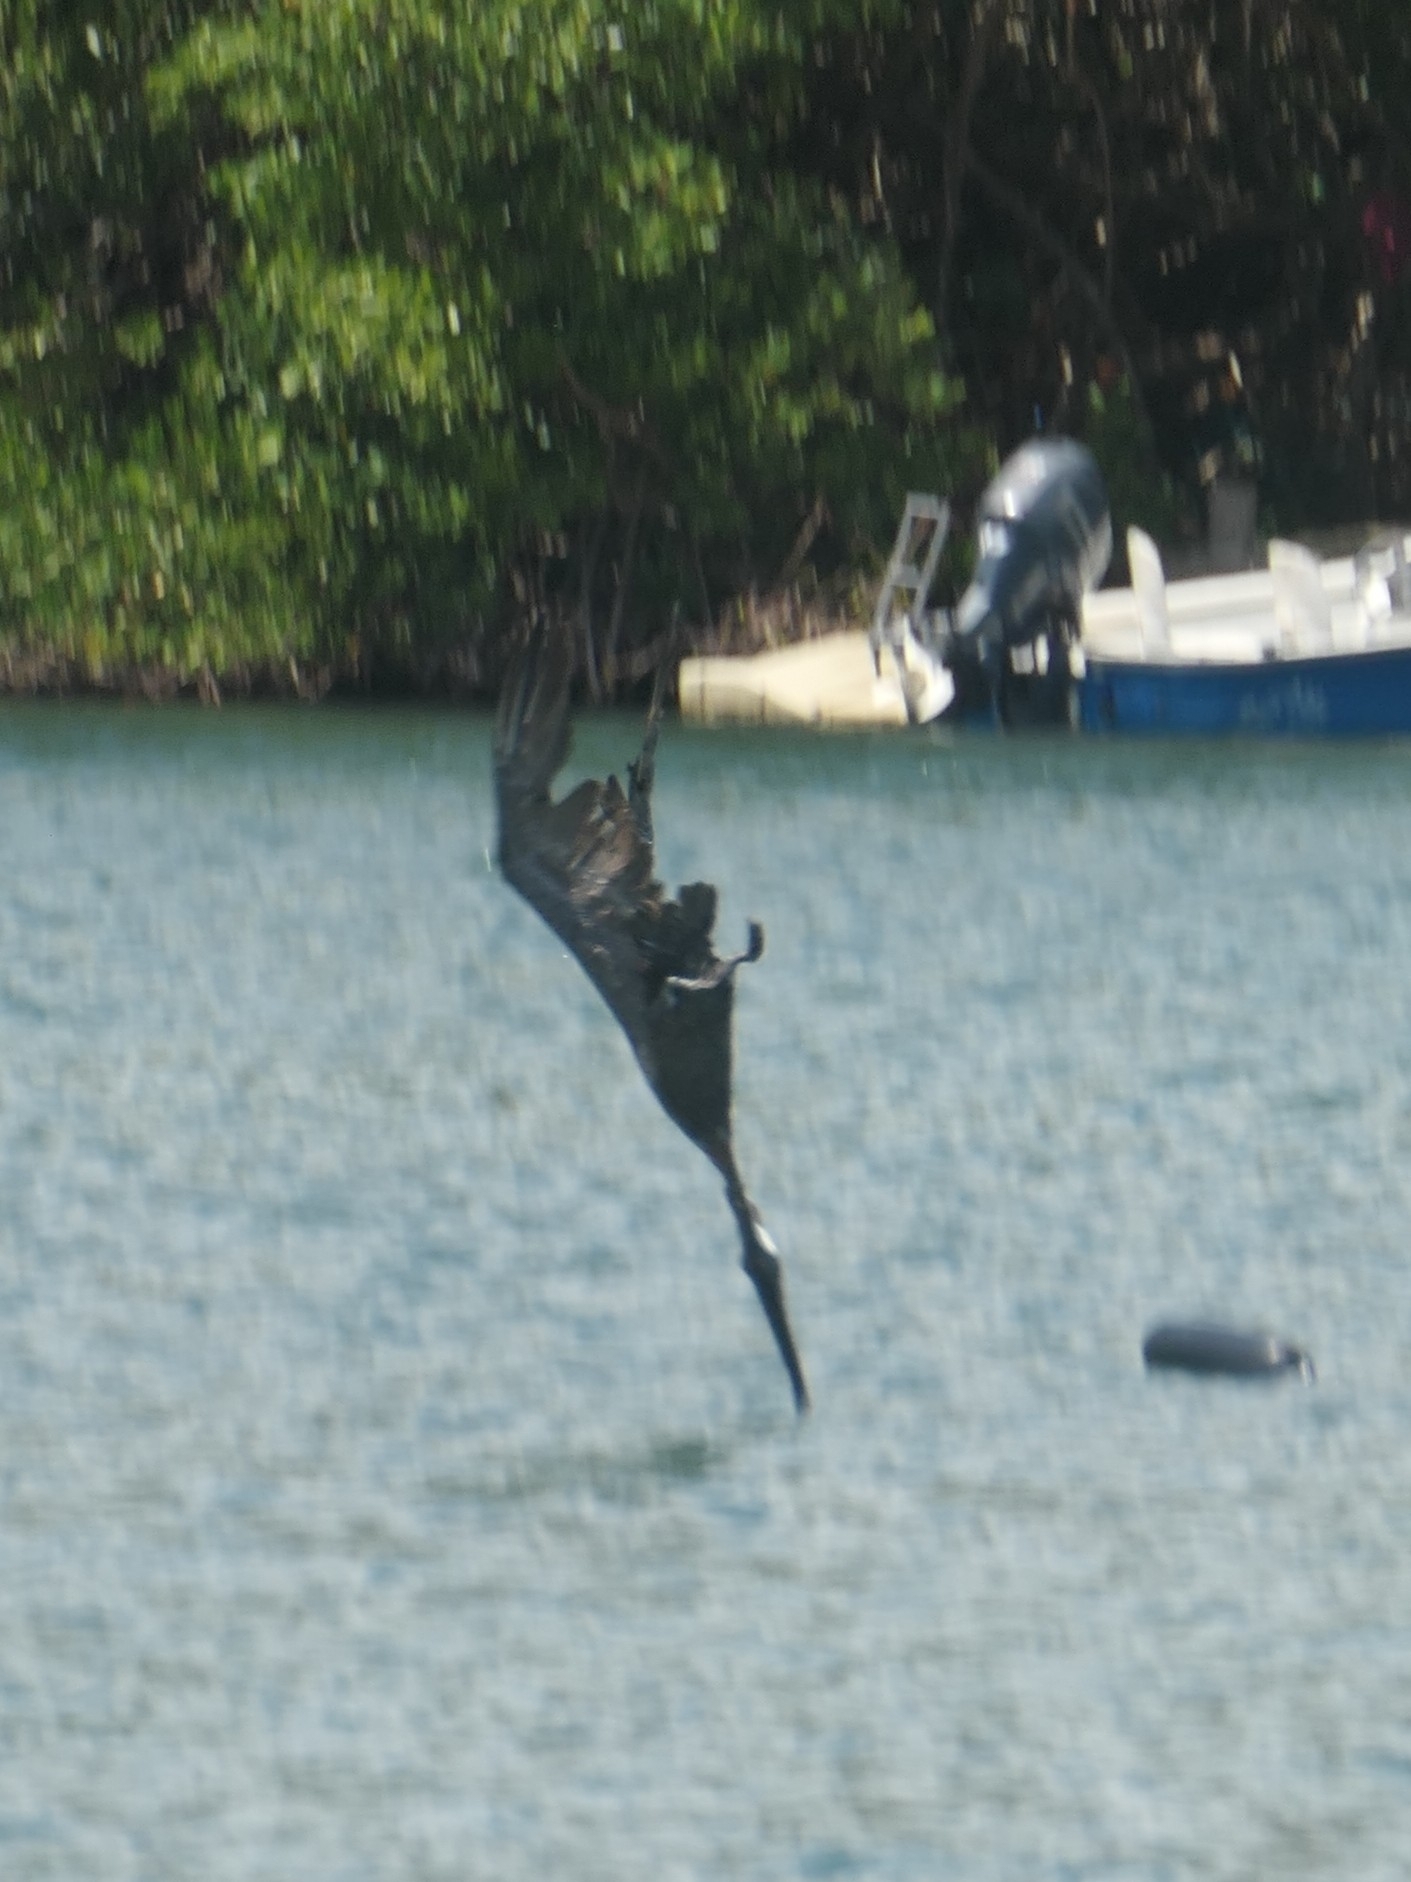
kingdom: Animalia
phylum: Chordata
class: Aves
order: Pelecaniformes
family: Pelecanidae
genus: Pelecanus
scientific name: Pelecanus occidentalis
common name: Brown pelican
